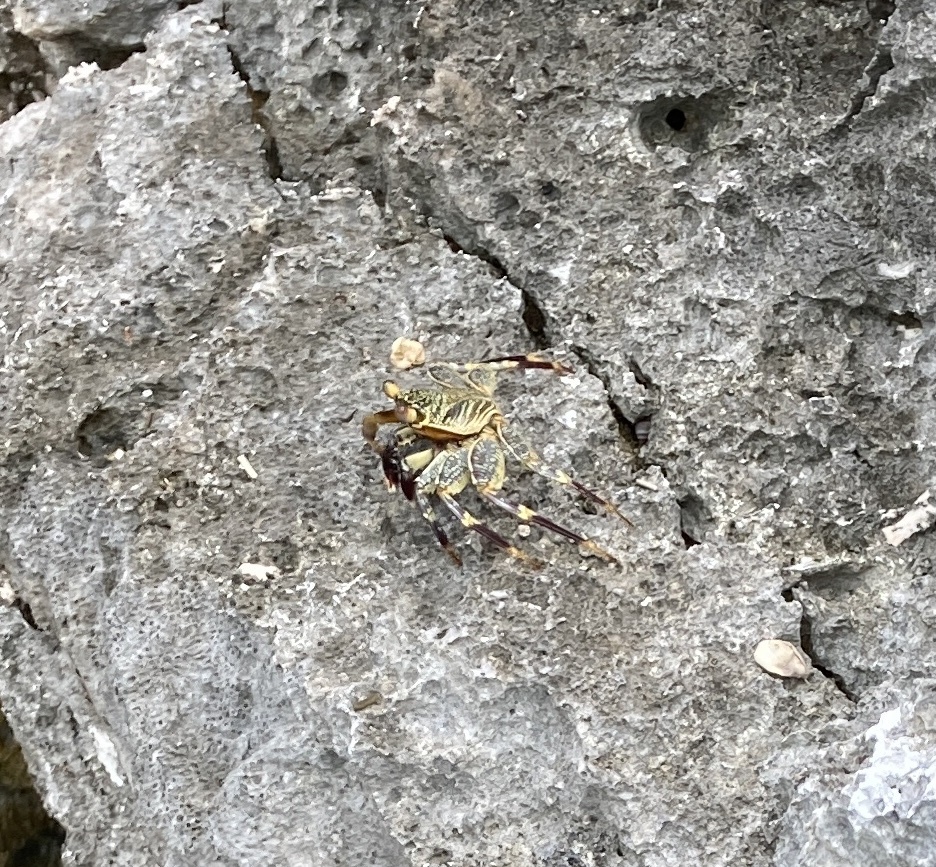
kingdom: Animalia
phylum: Arthropoda
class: Malacostraca
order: Decapoda
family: Grapsidae
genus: Grapsus
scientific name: Grapsus tenuicrustatus
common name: Natal lightfoot crab
